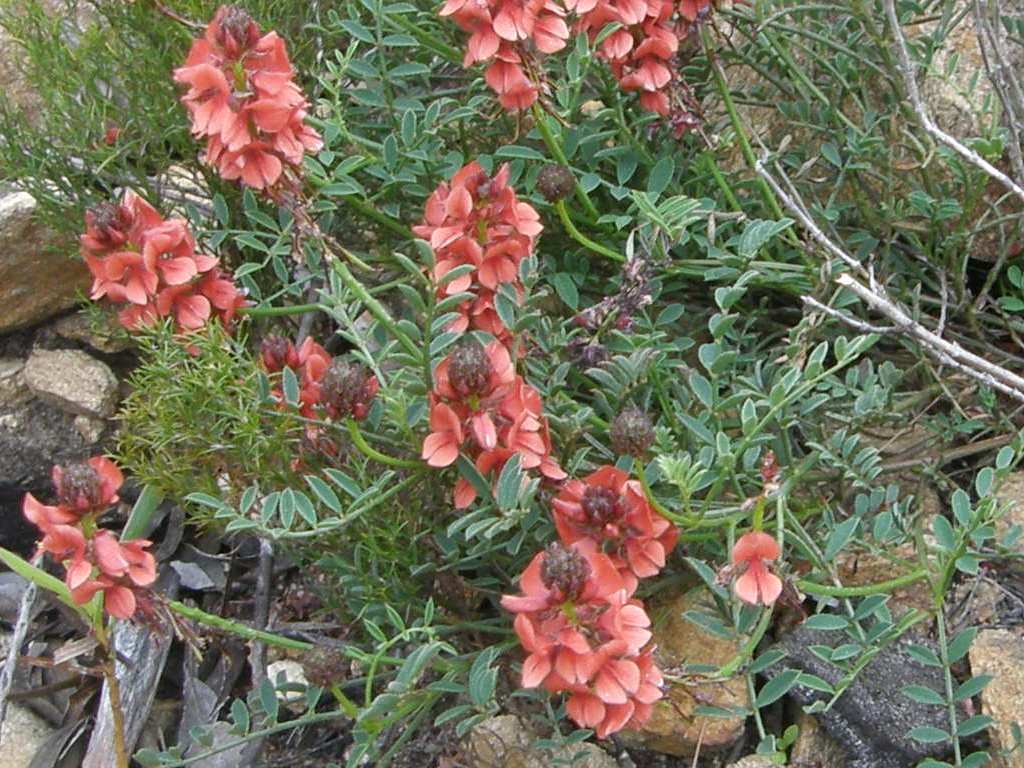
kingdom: Plantae
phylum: Tracheophyta
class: Magnoliopsida
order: Fabales
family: Fabaceae
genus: Indigofera
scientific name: Indigofera capillaris
